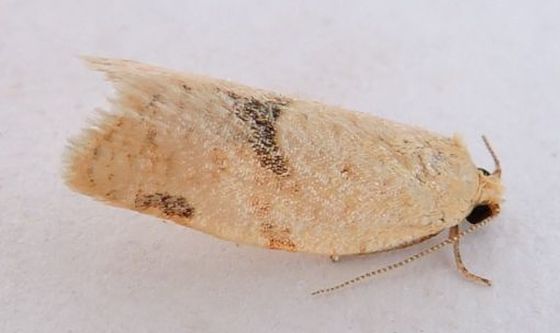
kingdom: Animalia
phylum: Arthropoda
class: Insecta
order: Lepidoptera
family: Tortricidae
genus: Argyrotaenia
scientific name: Argyrotaenia dorsalana
